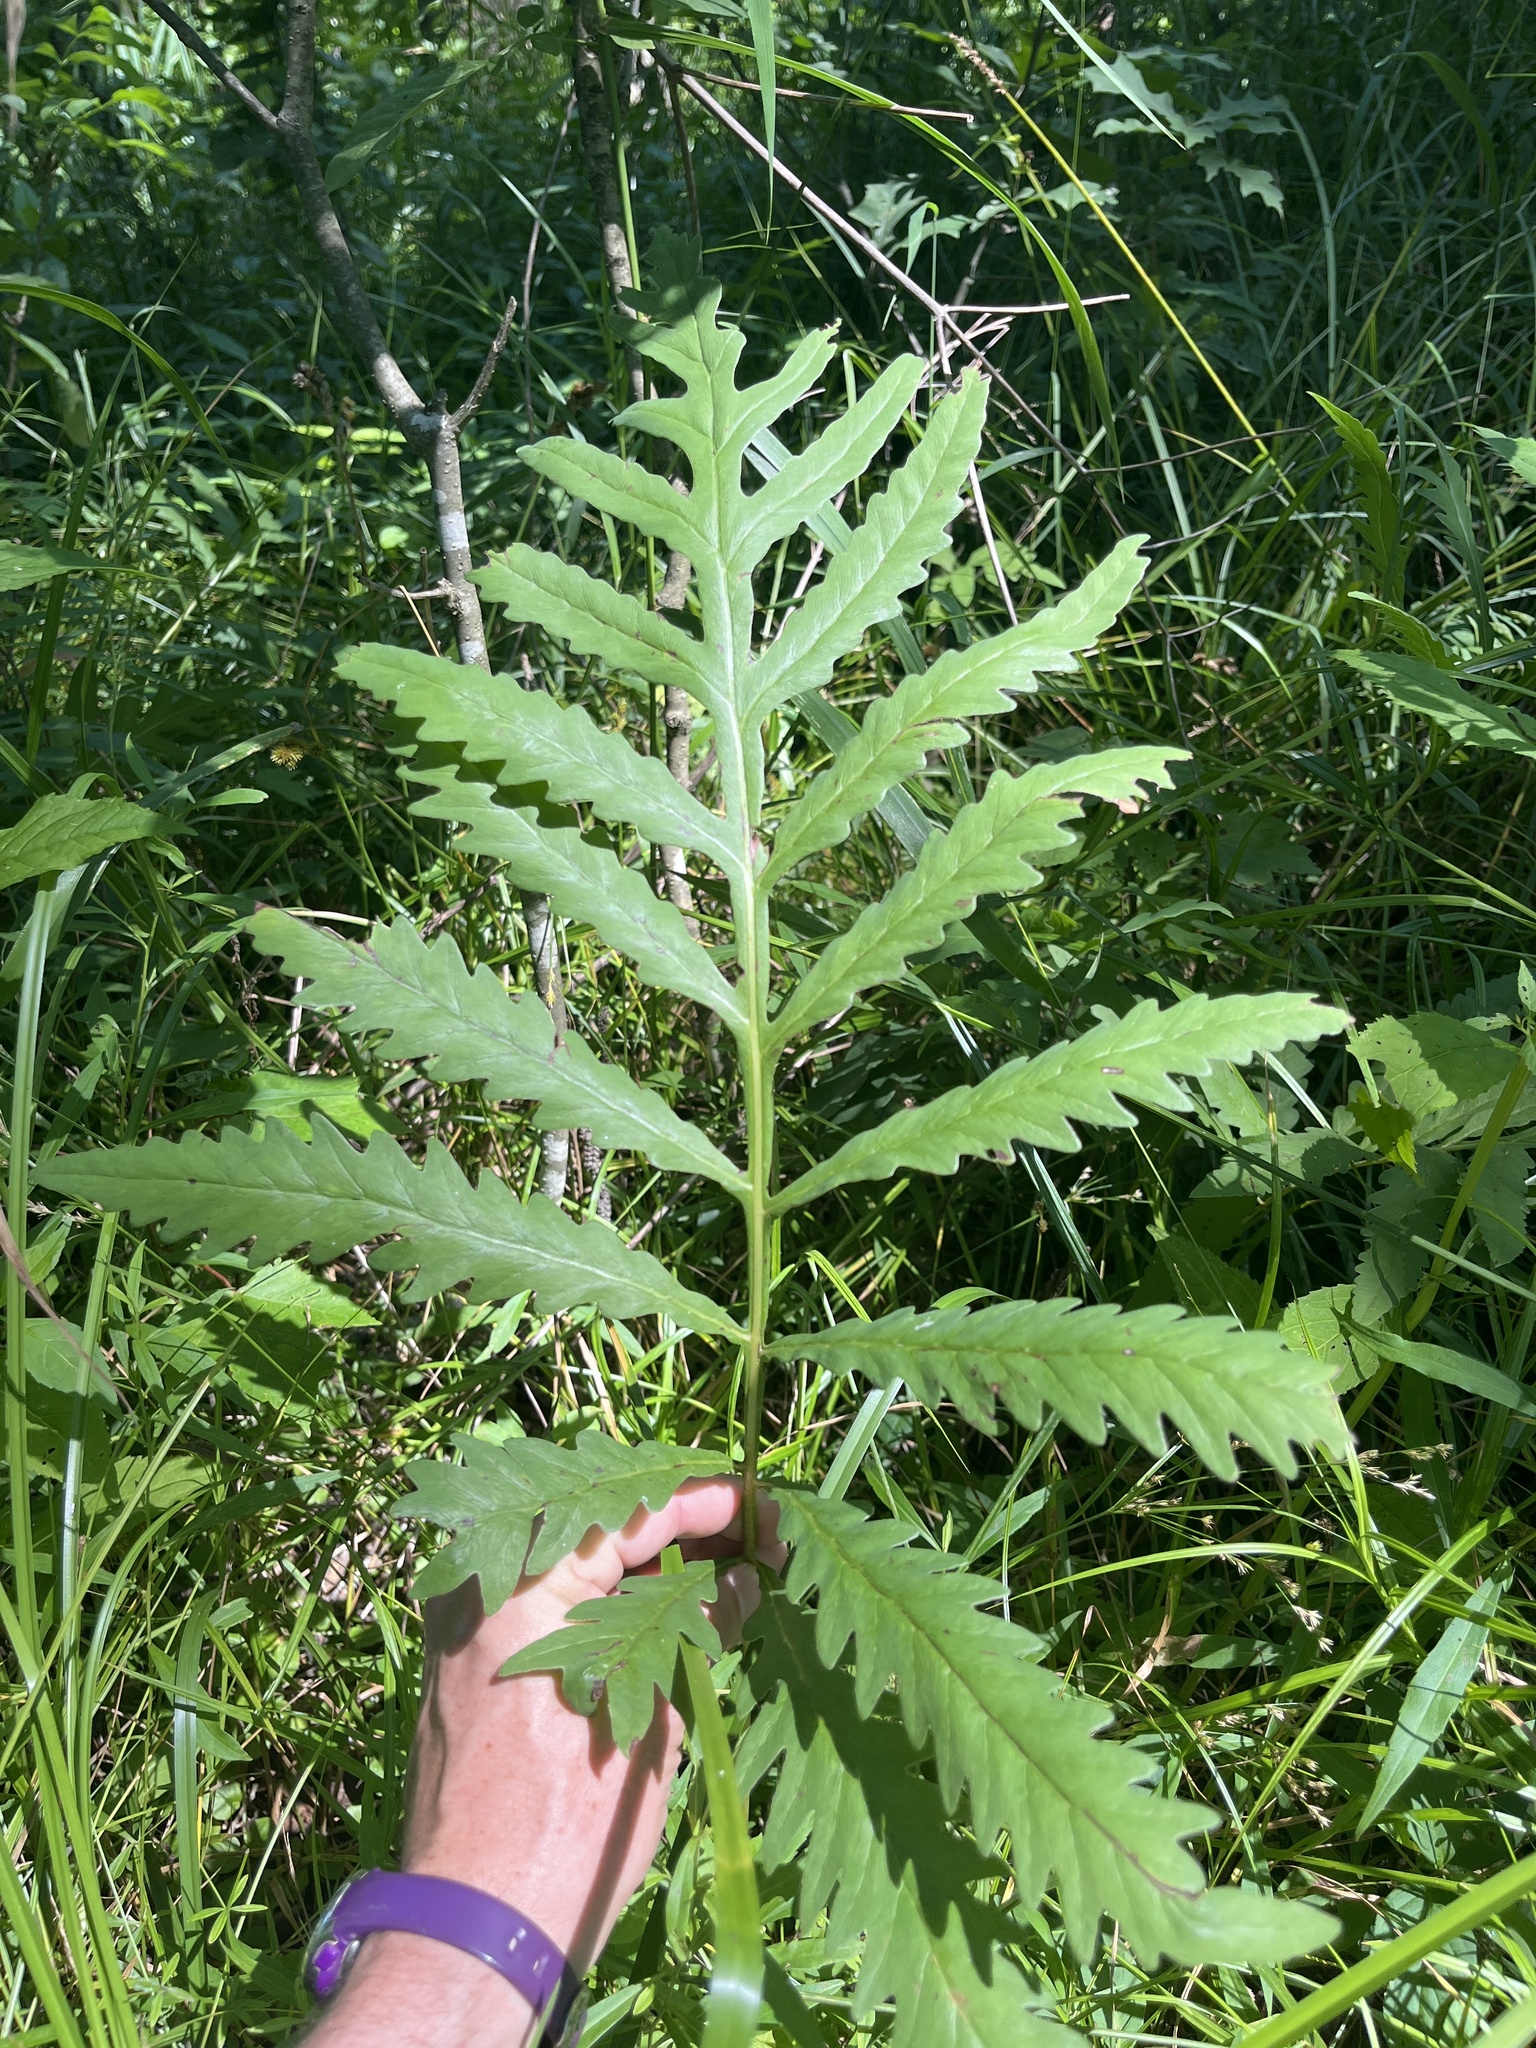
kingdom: Plantae
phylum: Tracheophyta
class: Polypodiopsida
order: Polypodiales
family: Onocleaceae
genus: Onoclea
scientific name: Onoclea sensibilis
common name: Sensitive fern
